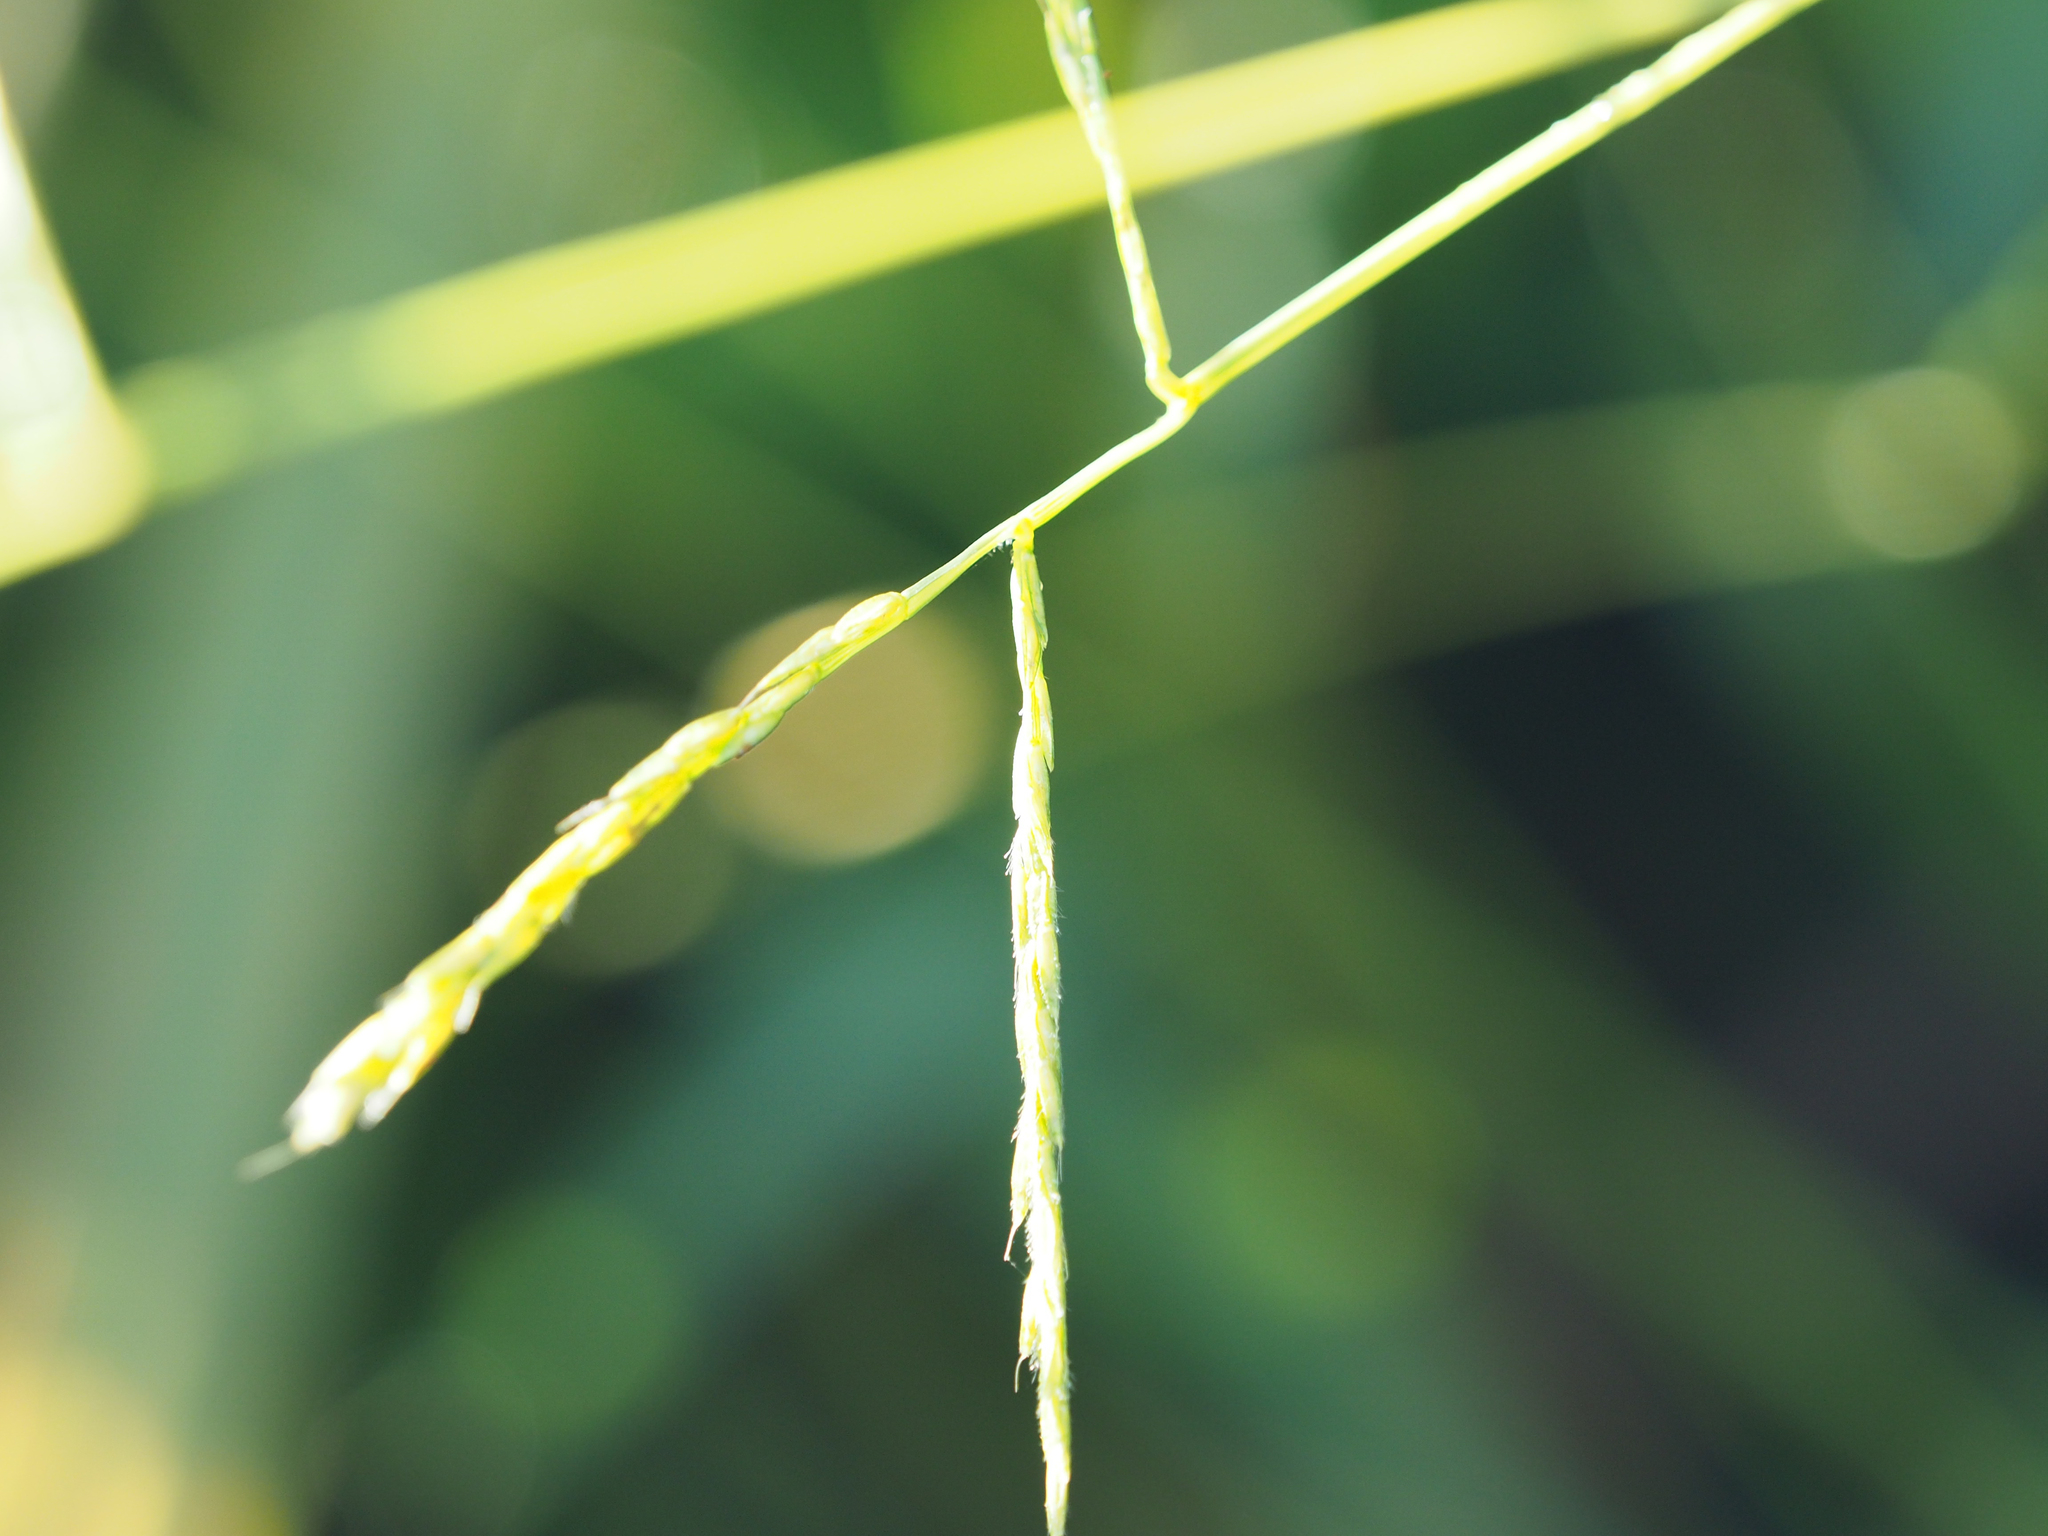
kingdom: Plantae
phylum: Tracheophyta
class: Liliopsida
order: Poales
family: Poaceae
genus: Microstegium
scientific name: Microstegium vimineum
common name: Japanese stiltgrass
